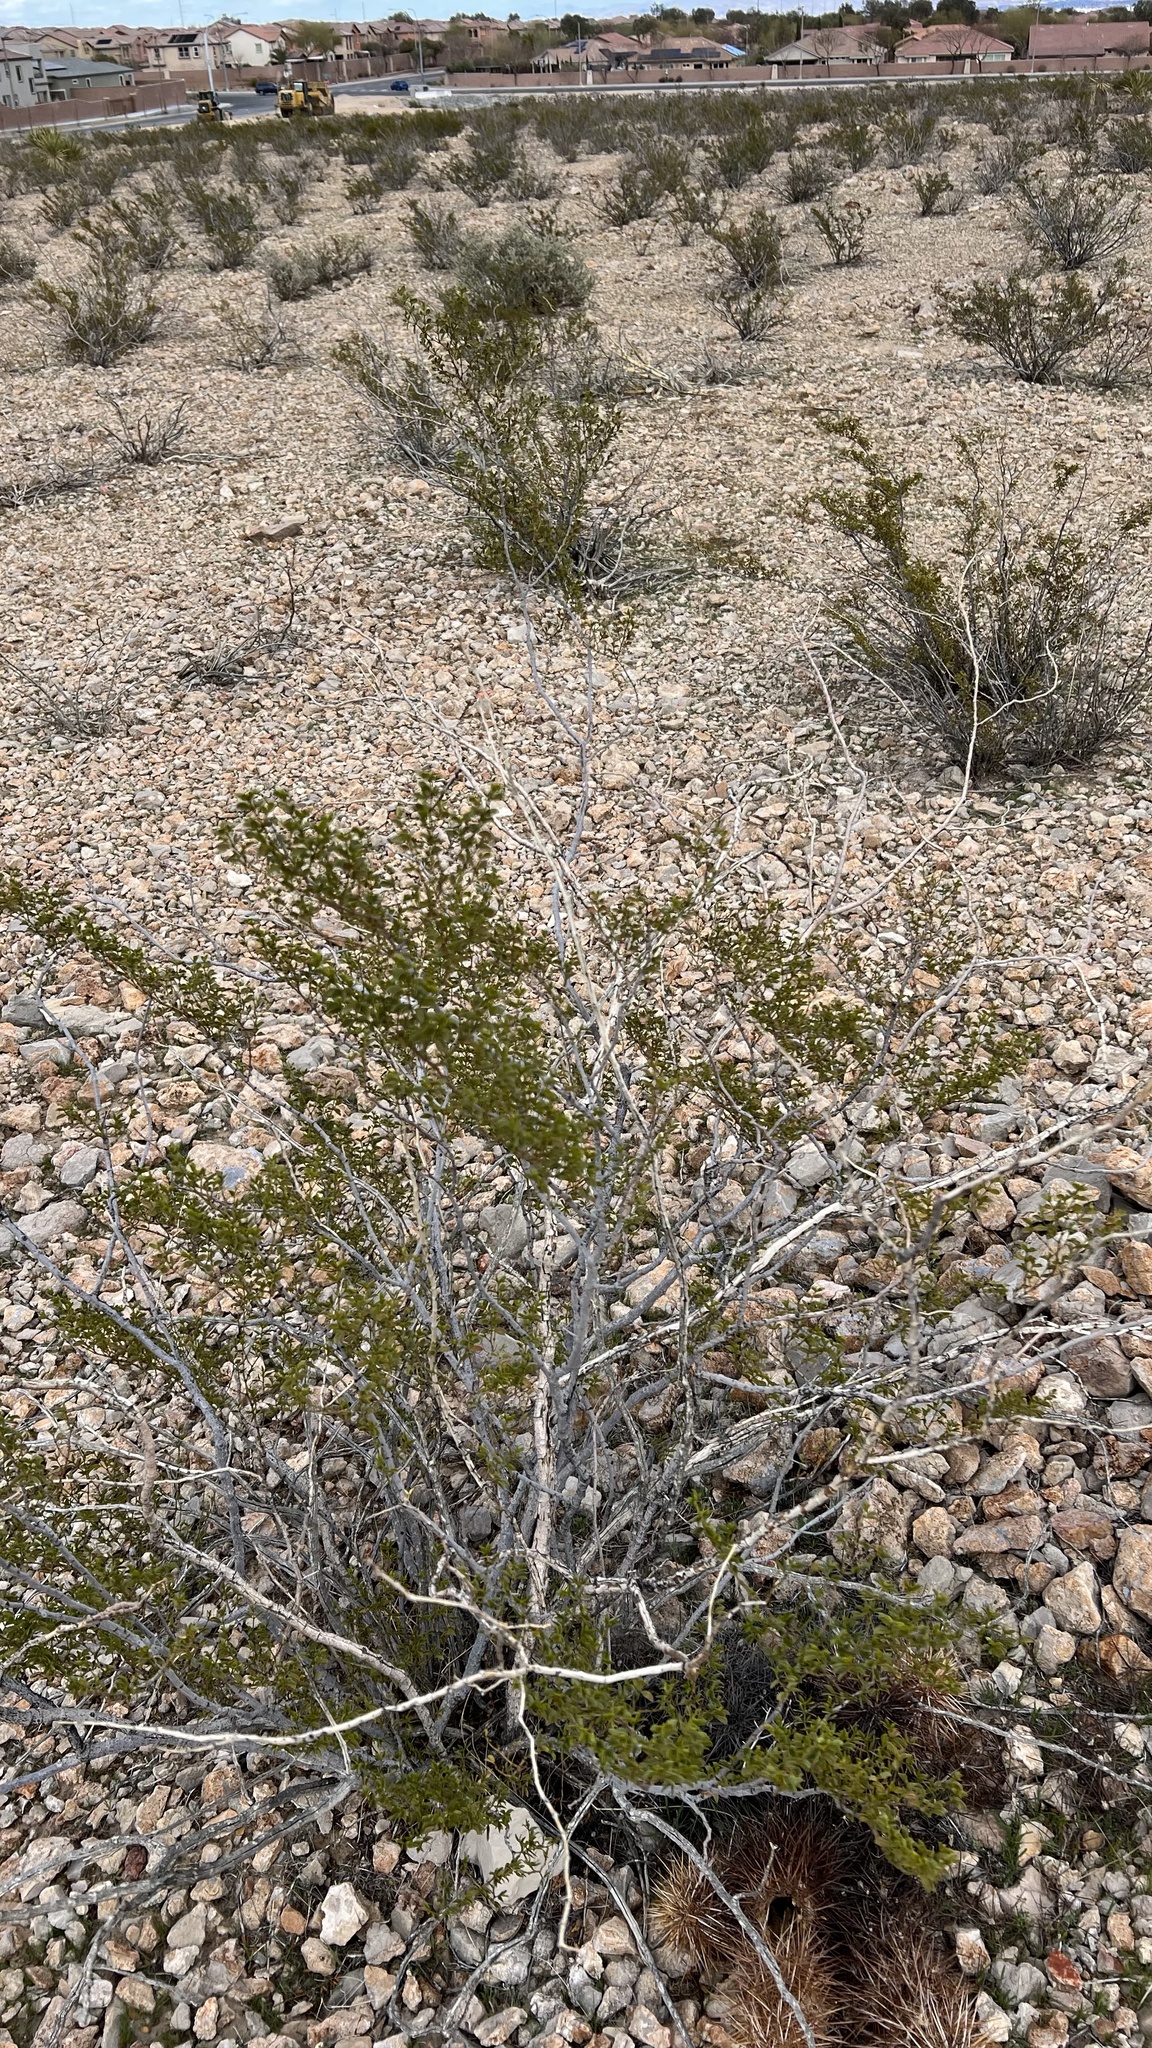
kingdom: Plantae
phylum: Tracheophyta
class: Magnoliopsida
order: Zygophyllales
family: Zygophyllaceae
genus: Larrea
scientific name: Larrea tridentata
